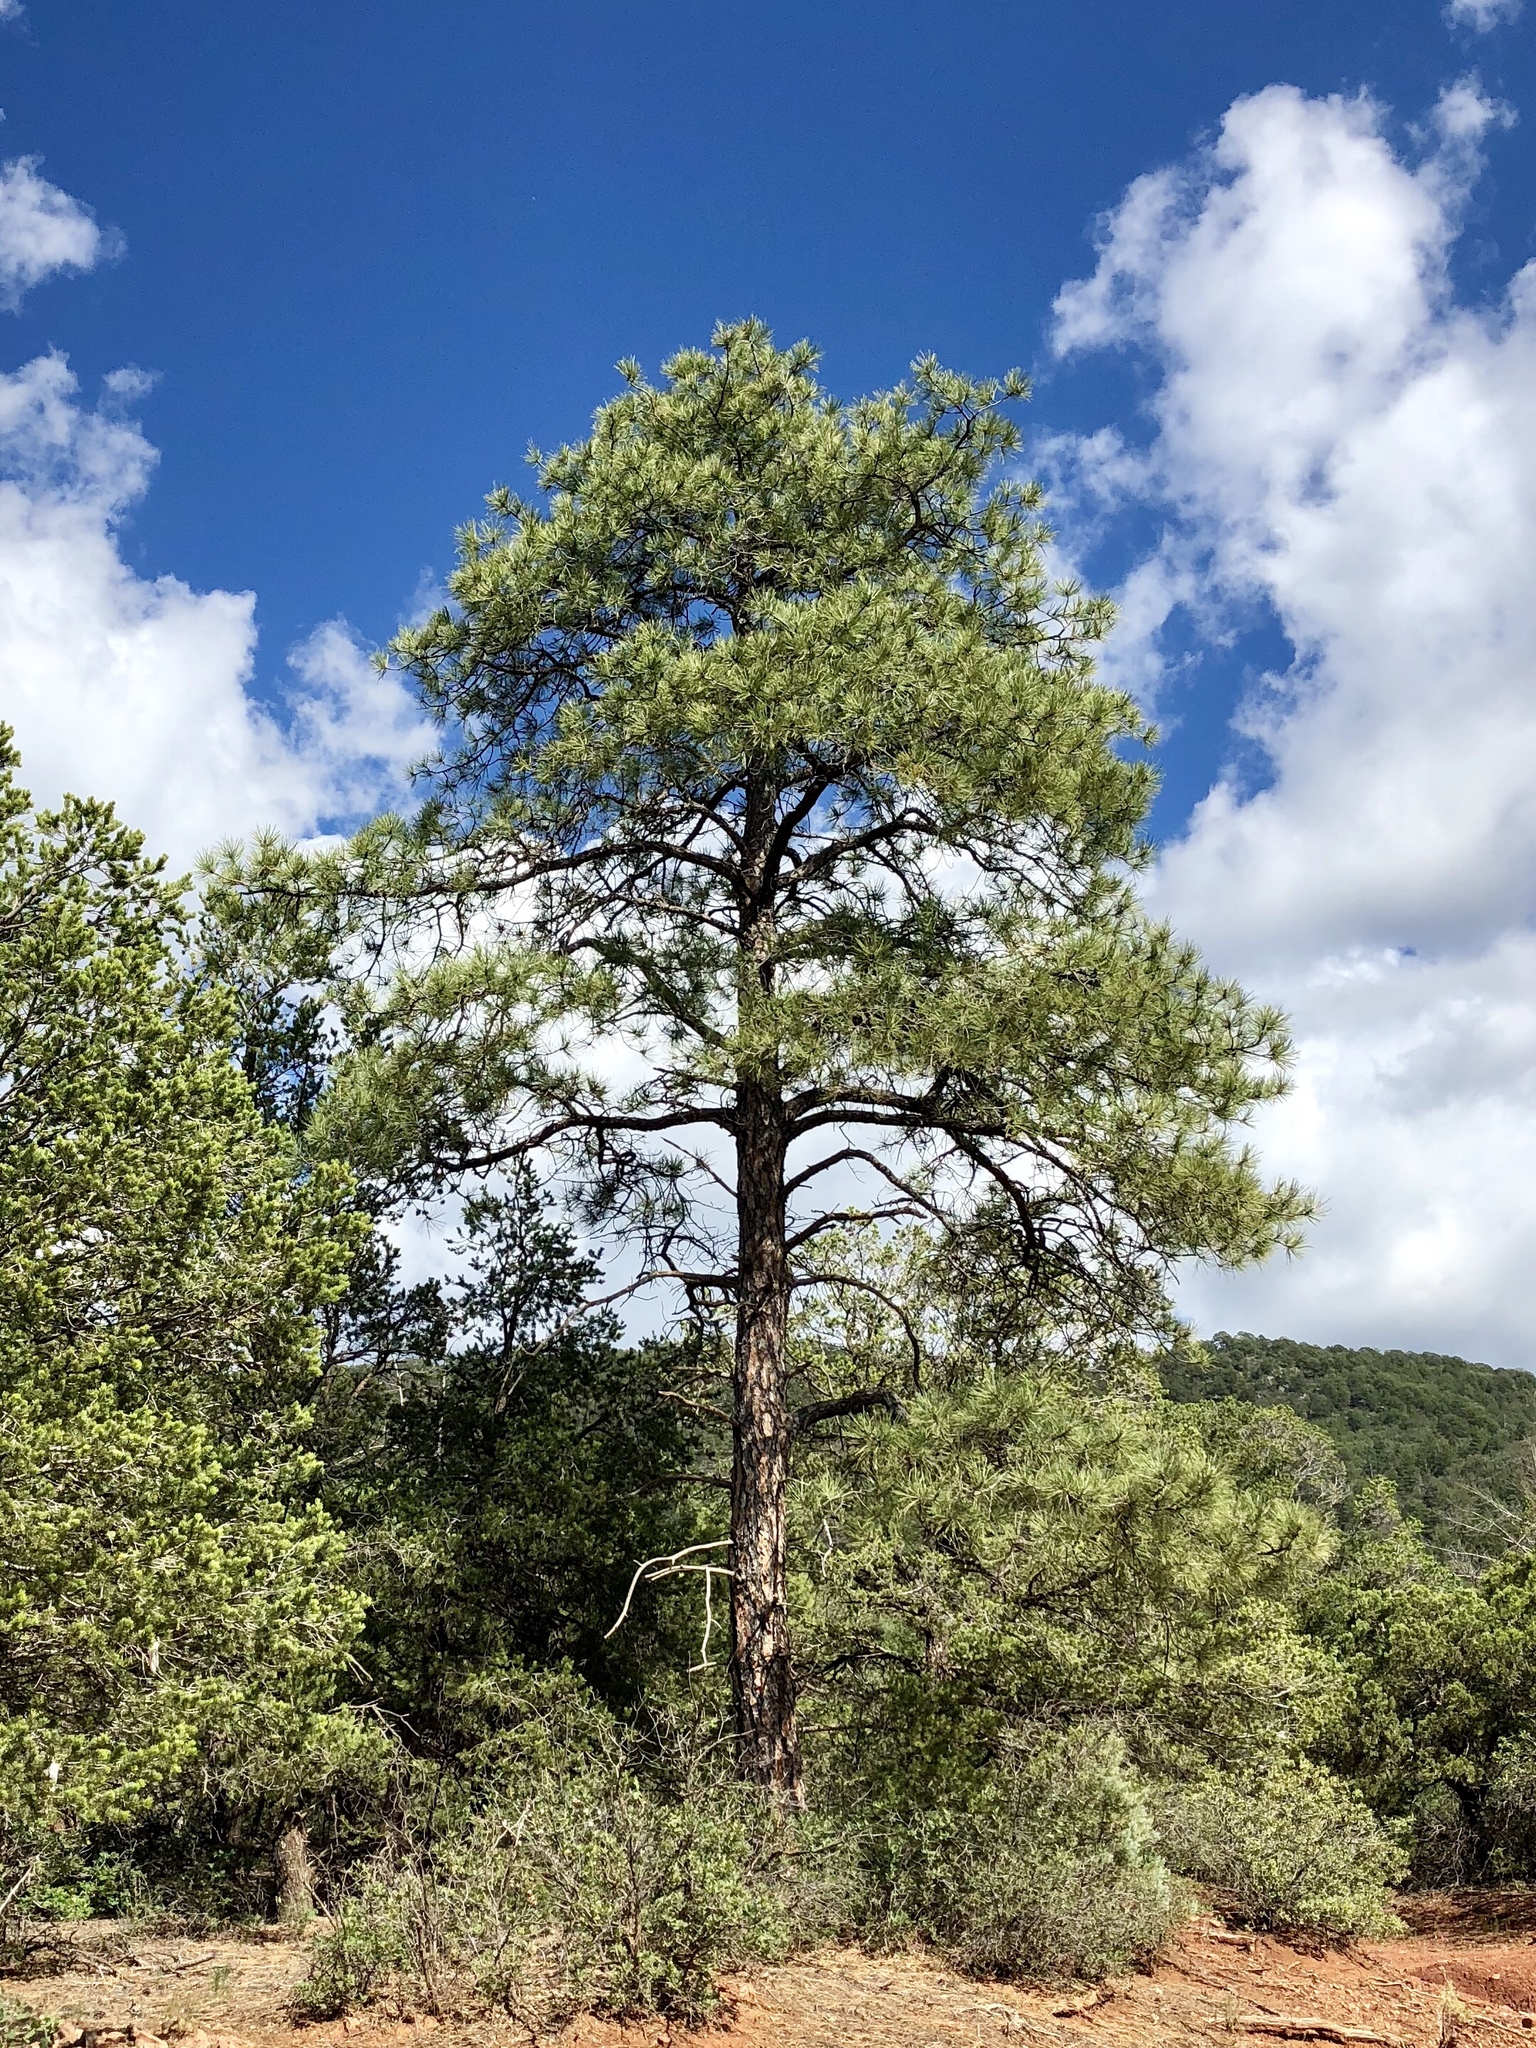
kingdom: Plantae
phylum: Tracheophyta
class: Pinopsida
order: Pinales
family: Pinaceae
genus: Pinus
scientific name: Pinus ponderosa
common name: Western yellow-pine
